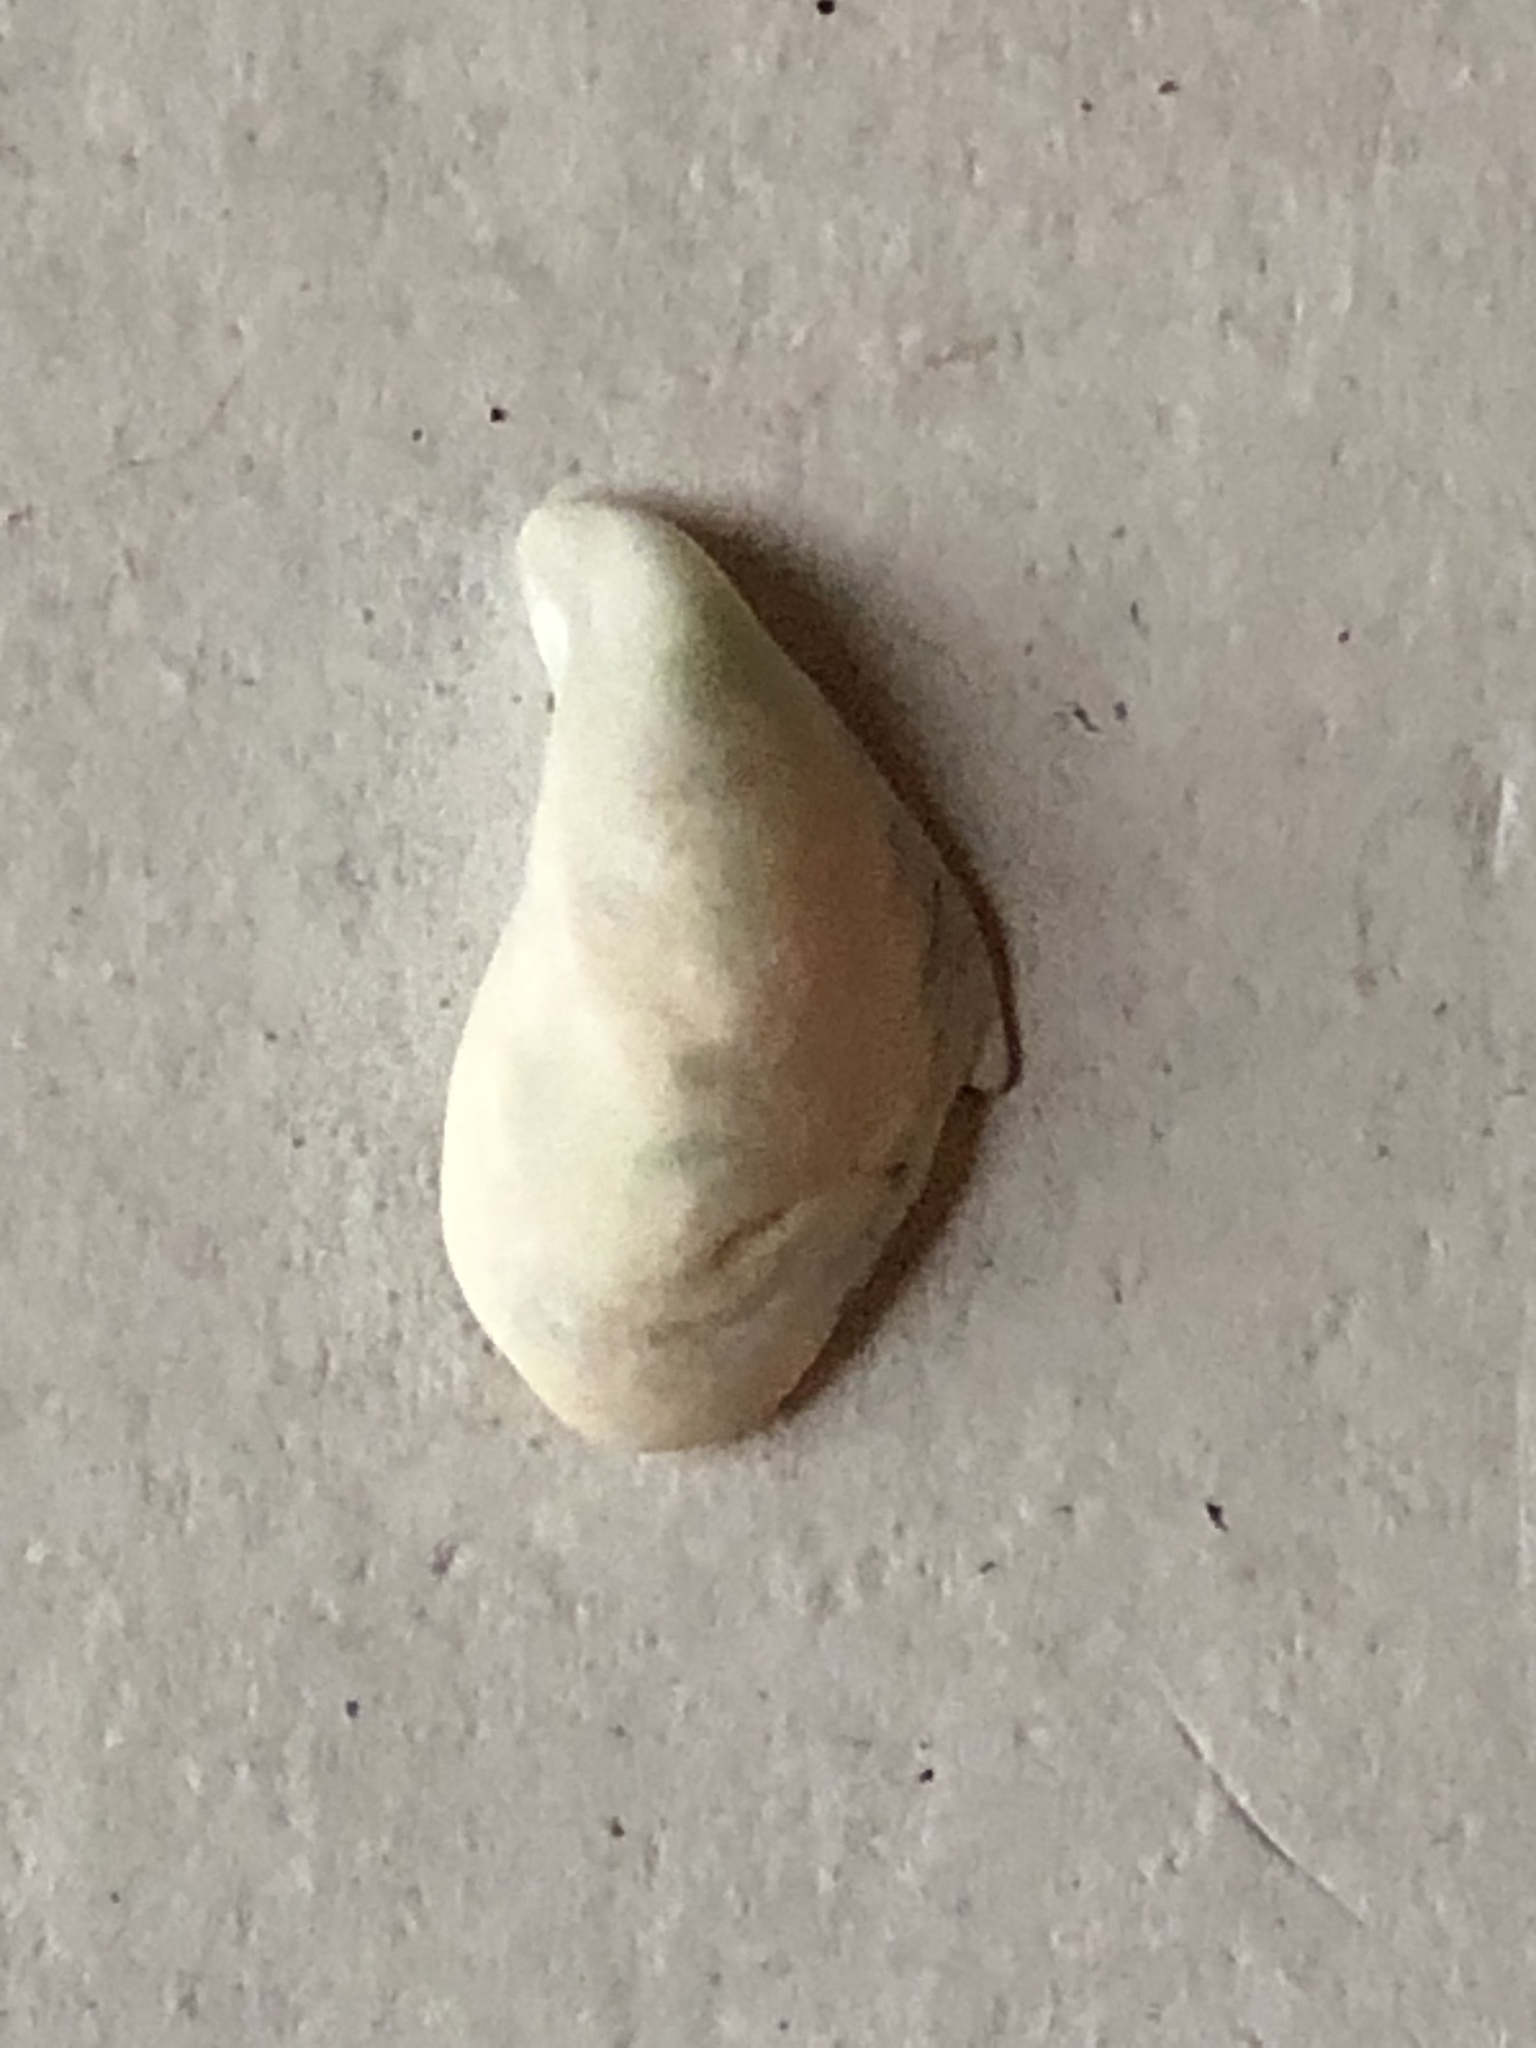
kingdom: Animalia
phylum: Mollusca
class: Bivalvia
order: Myida
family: Dreissenidae
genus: Dreissena
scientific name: Dreissena bugensis
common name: Quagga mussel
